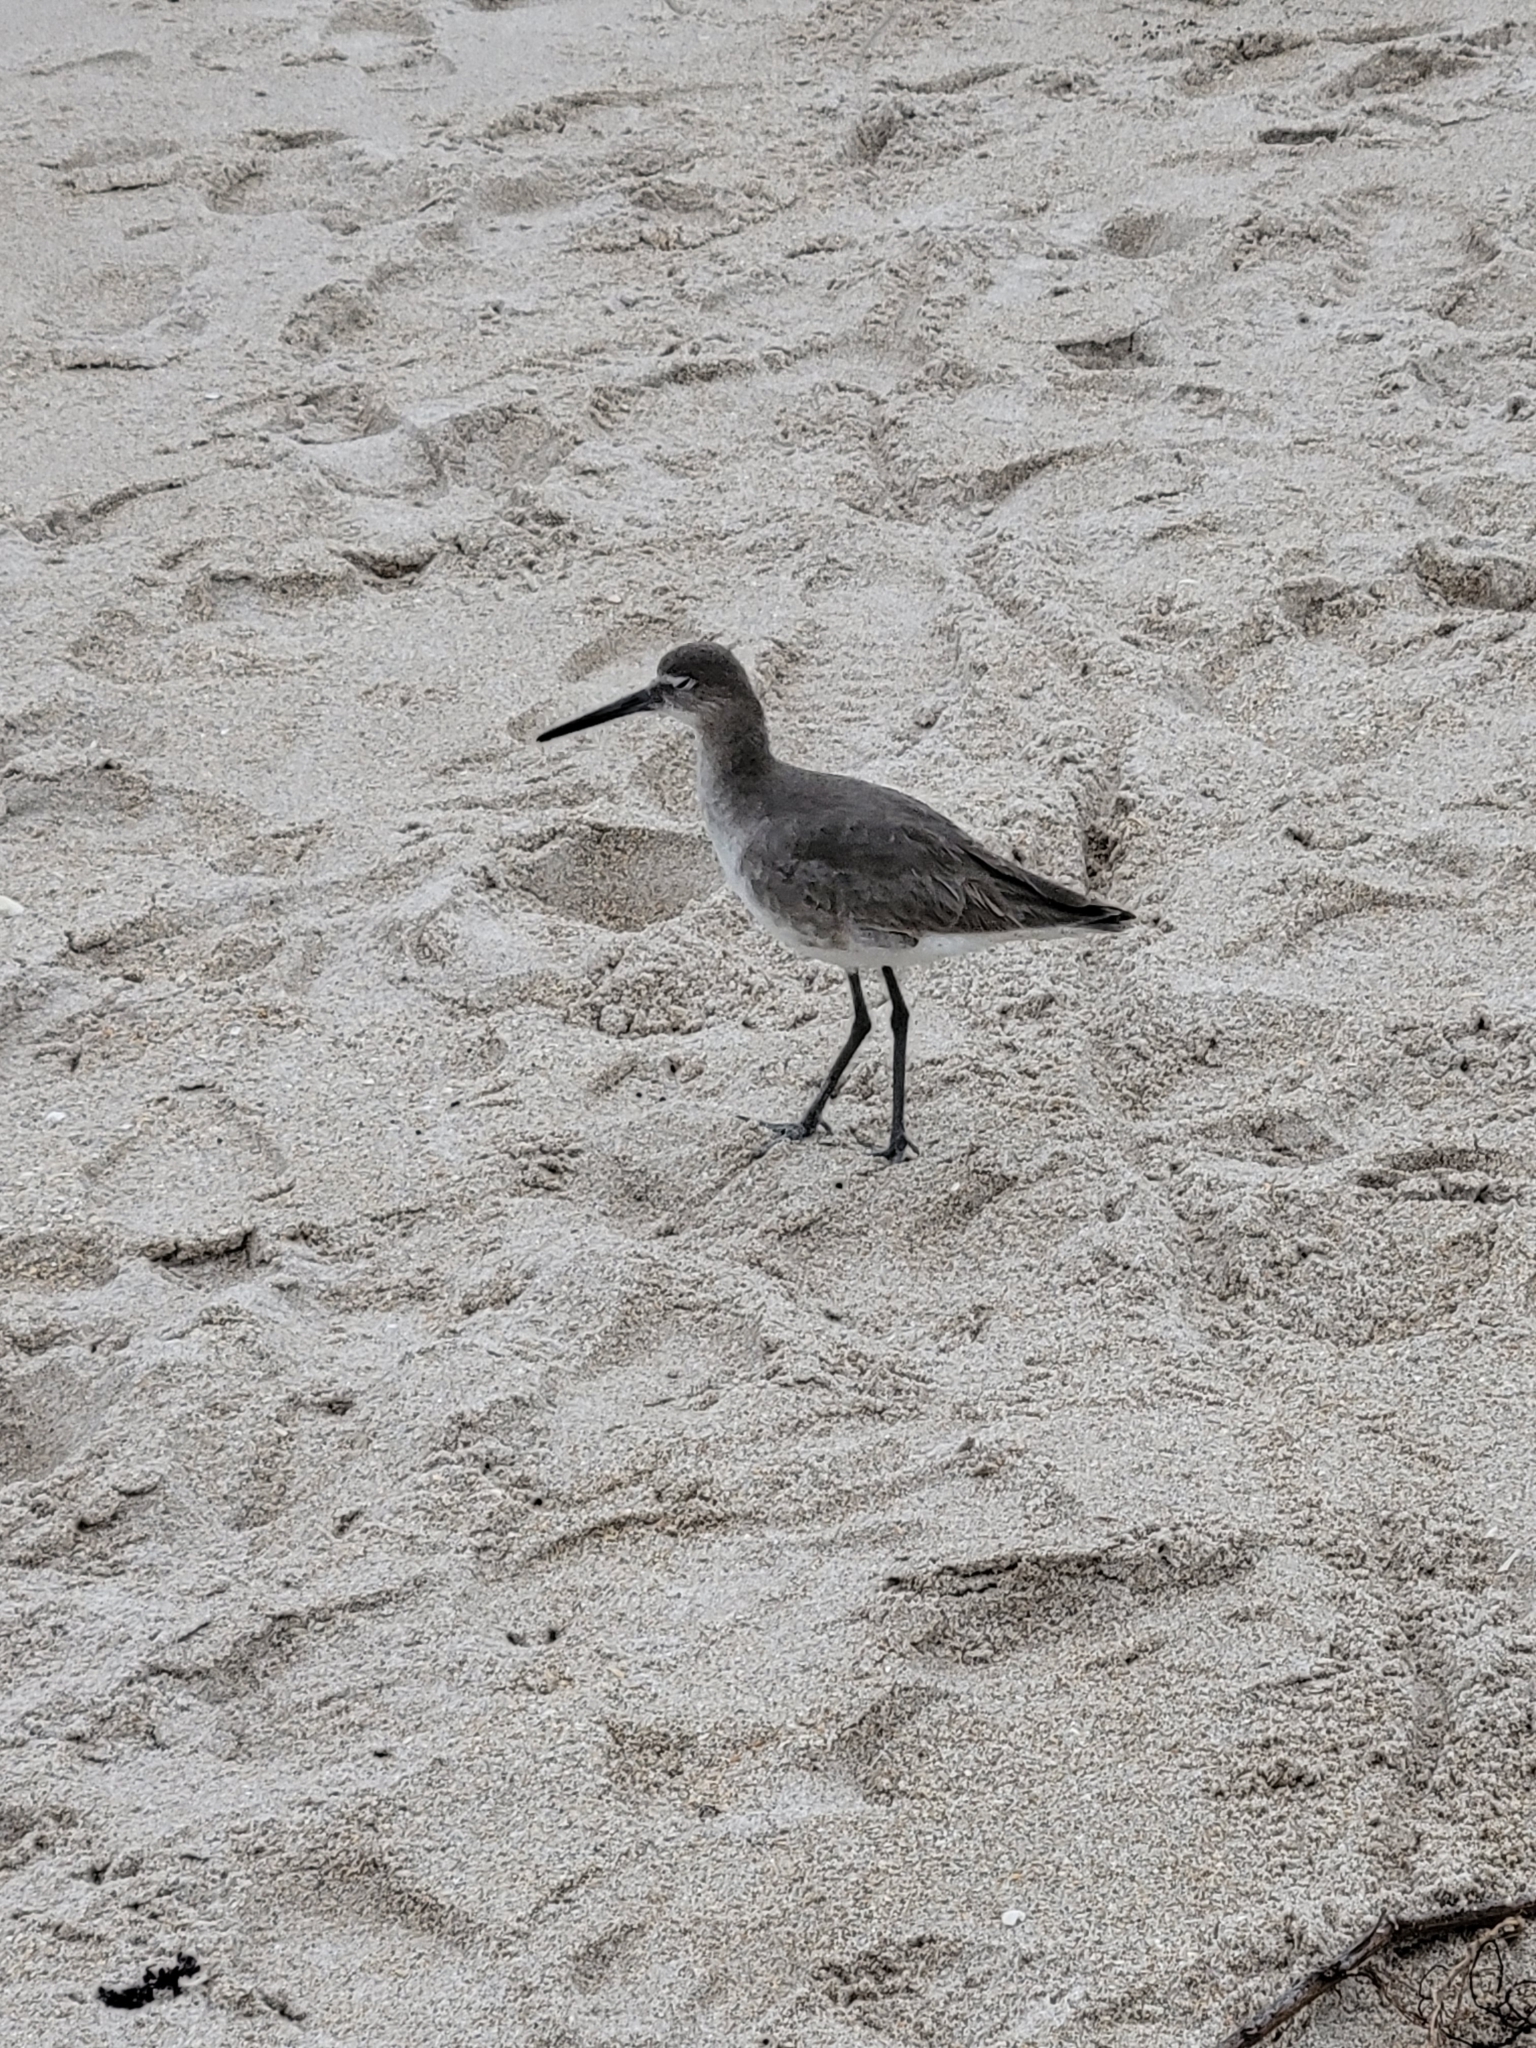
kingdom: Animalia
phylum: Chordata
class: Aves
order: Charadriiformes
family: Scolopacidae
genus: Tringa
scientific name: Tringa semipalmata
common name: Willet
